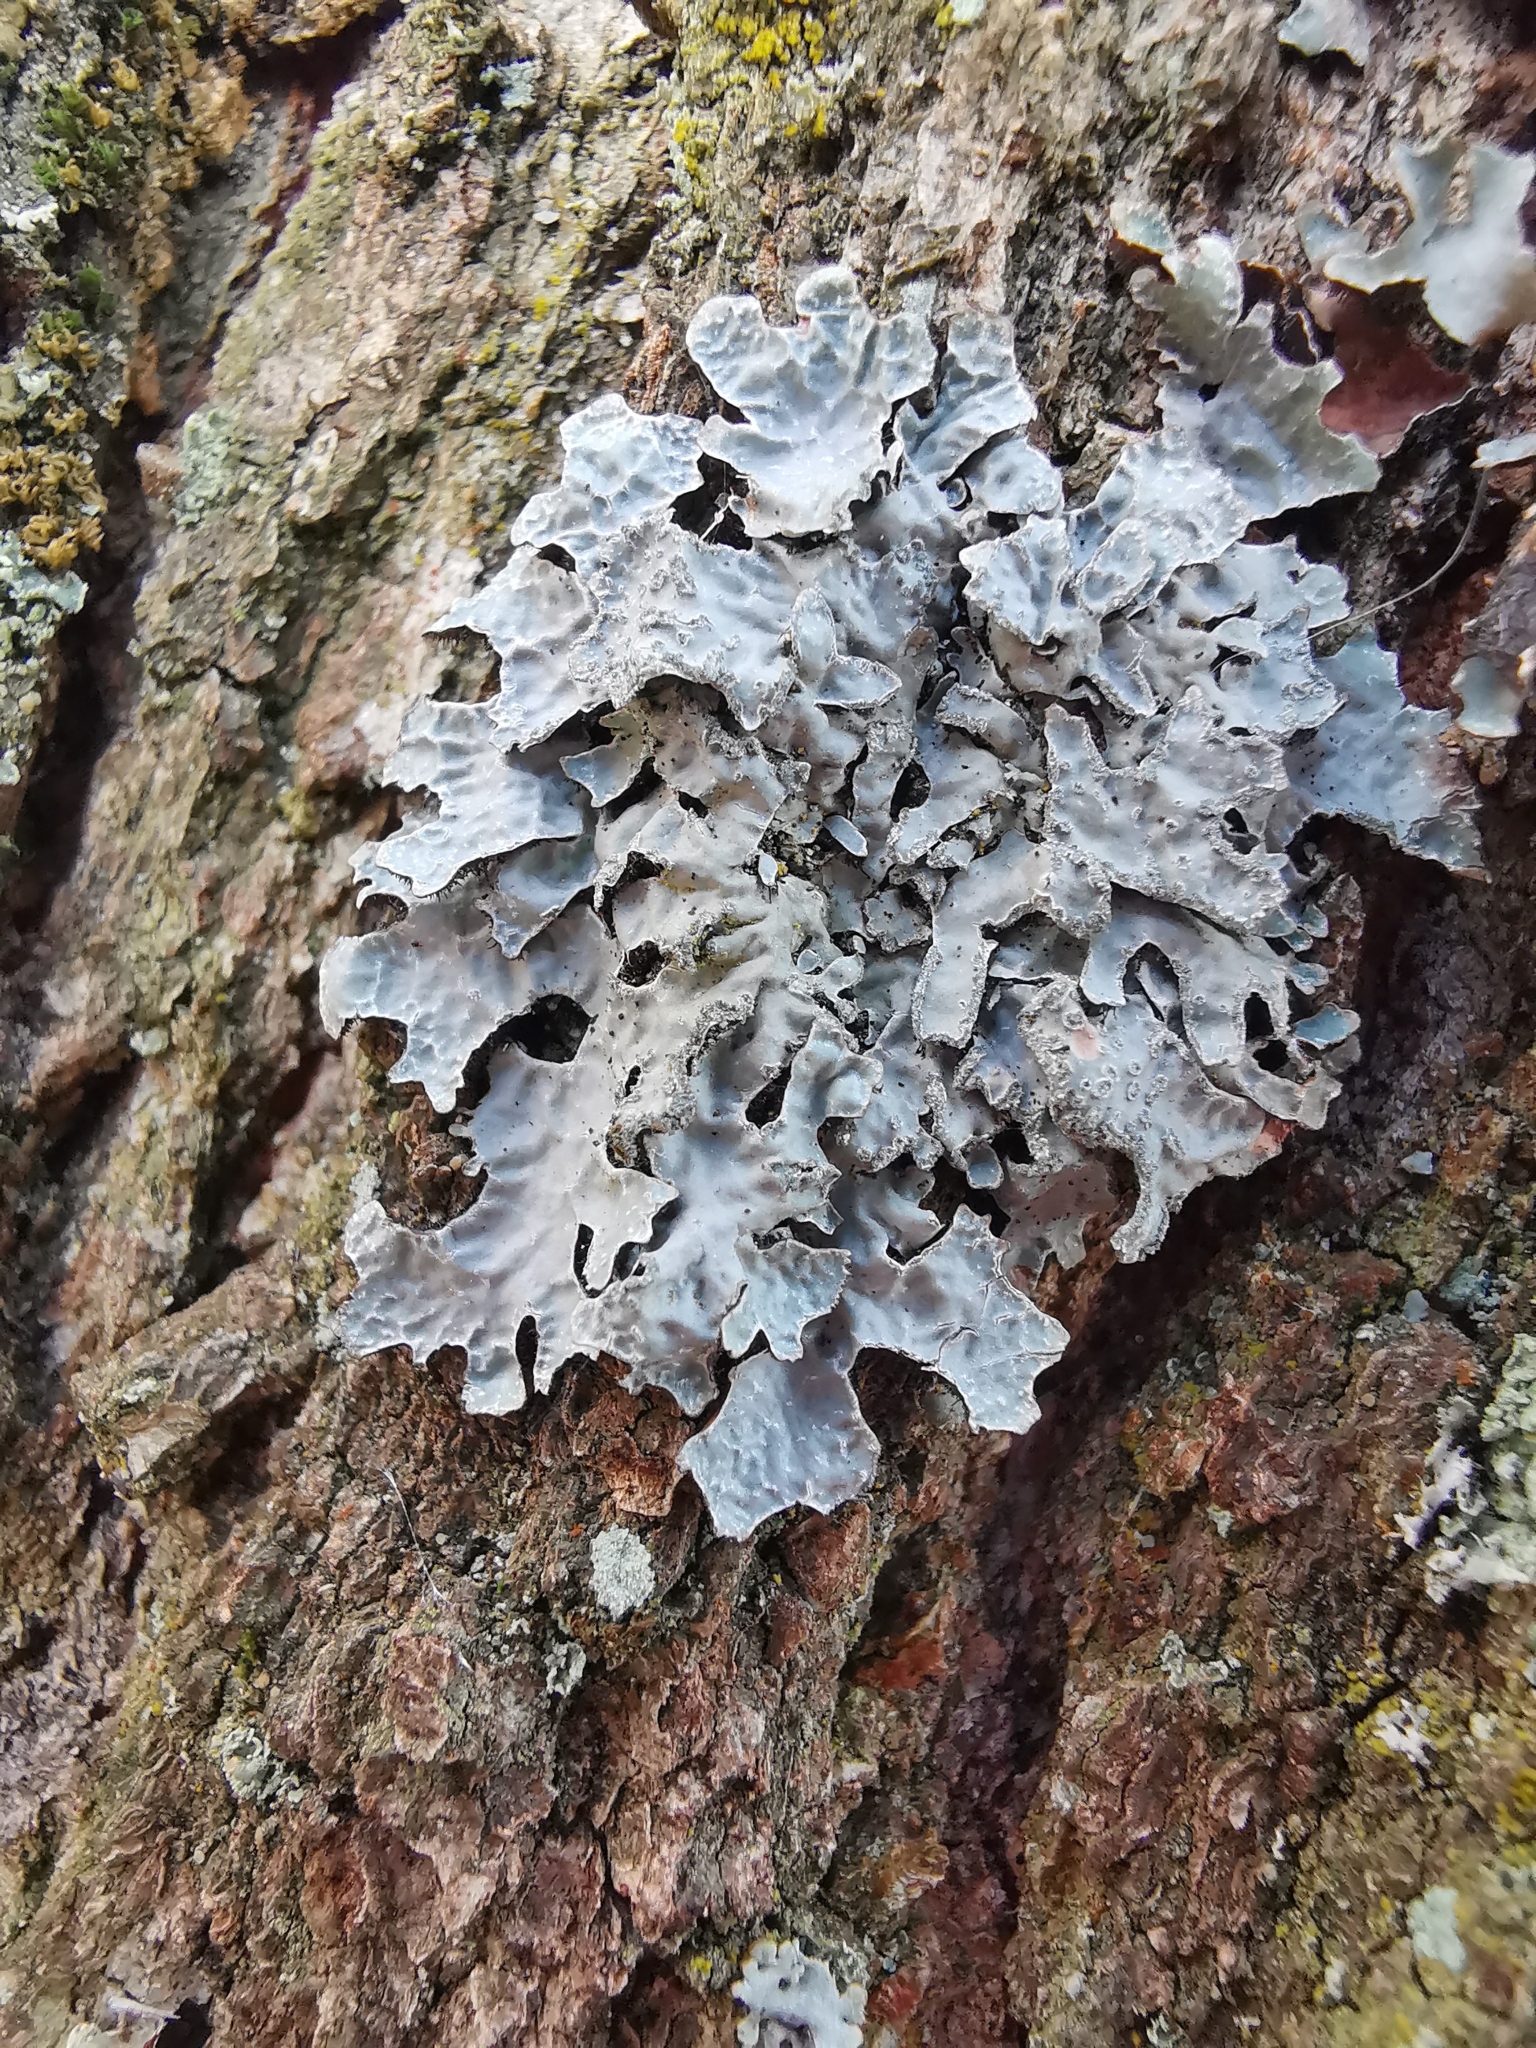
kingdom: Fungi
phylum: Ascomycota
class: Lecanoromycetes
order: Lecanorales
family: Parmeliaceae
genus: Parmelia
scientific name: Parmelia sulcata
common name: Netted shield lichen
